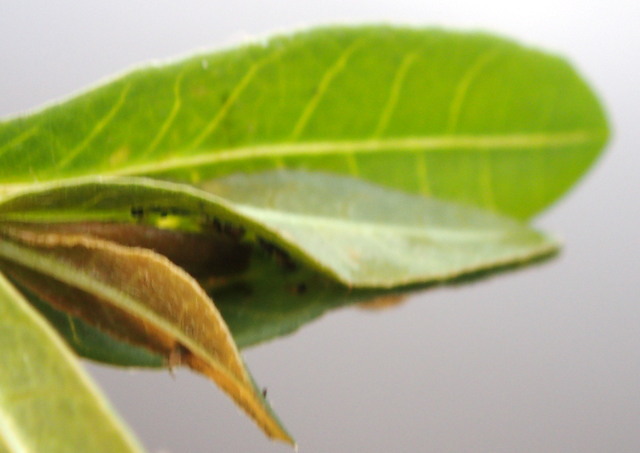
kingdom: Animalia
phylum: Arthropoda
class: Insecta
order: Lepidoptera
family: Crambidae
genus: Herpetogramma
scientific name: Herpetogramma bipunctalis
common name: Southern beet webworm
